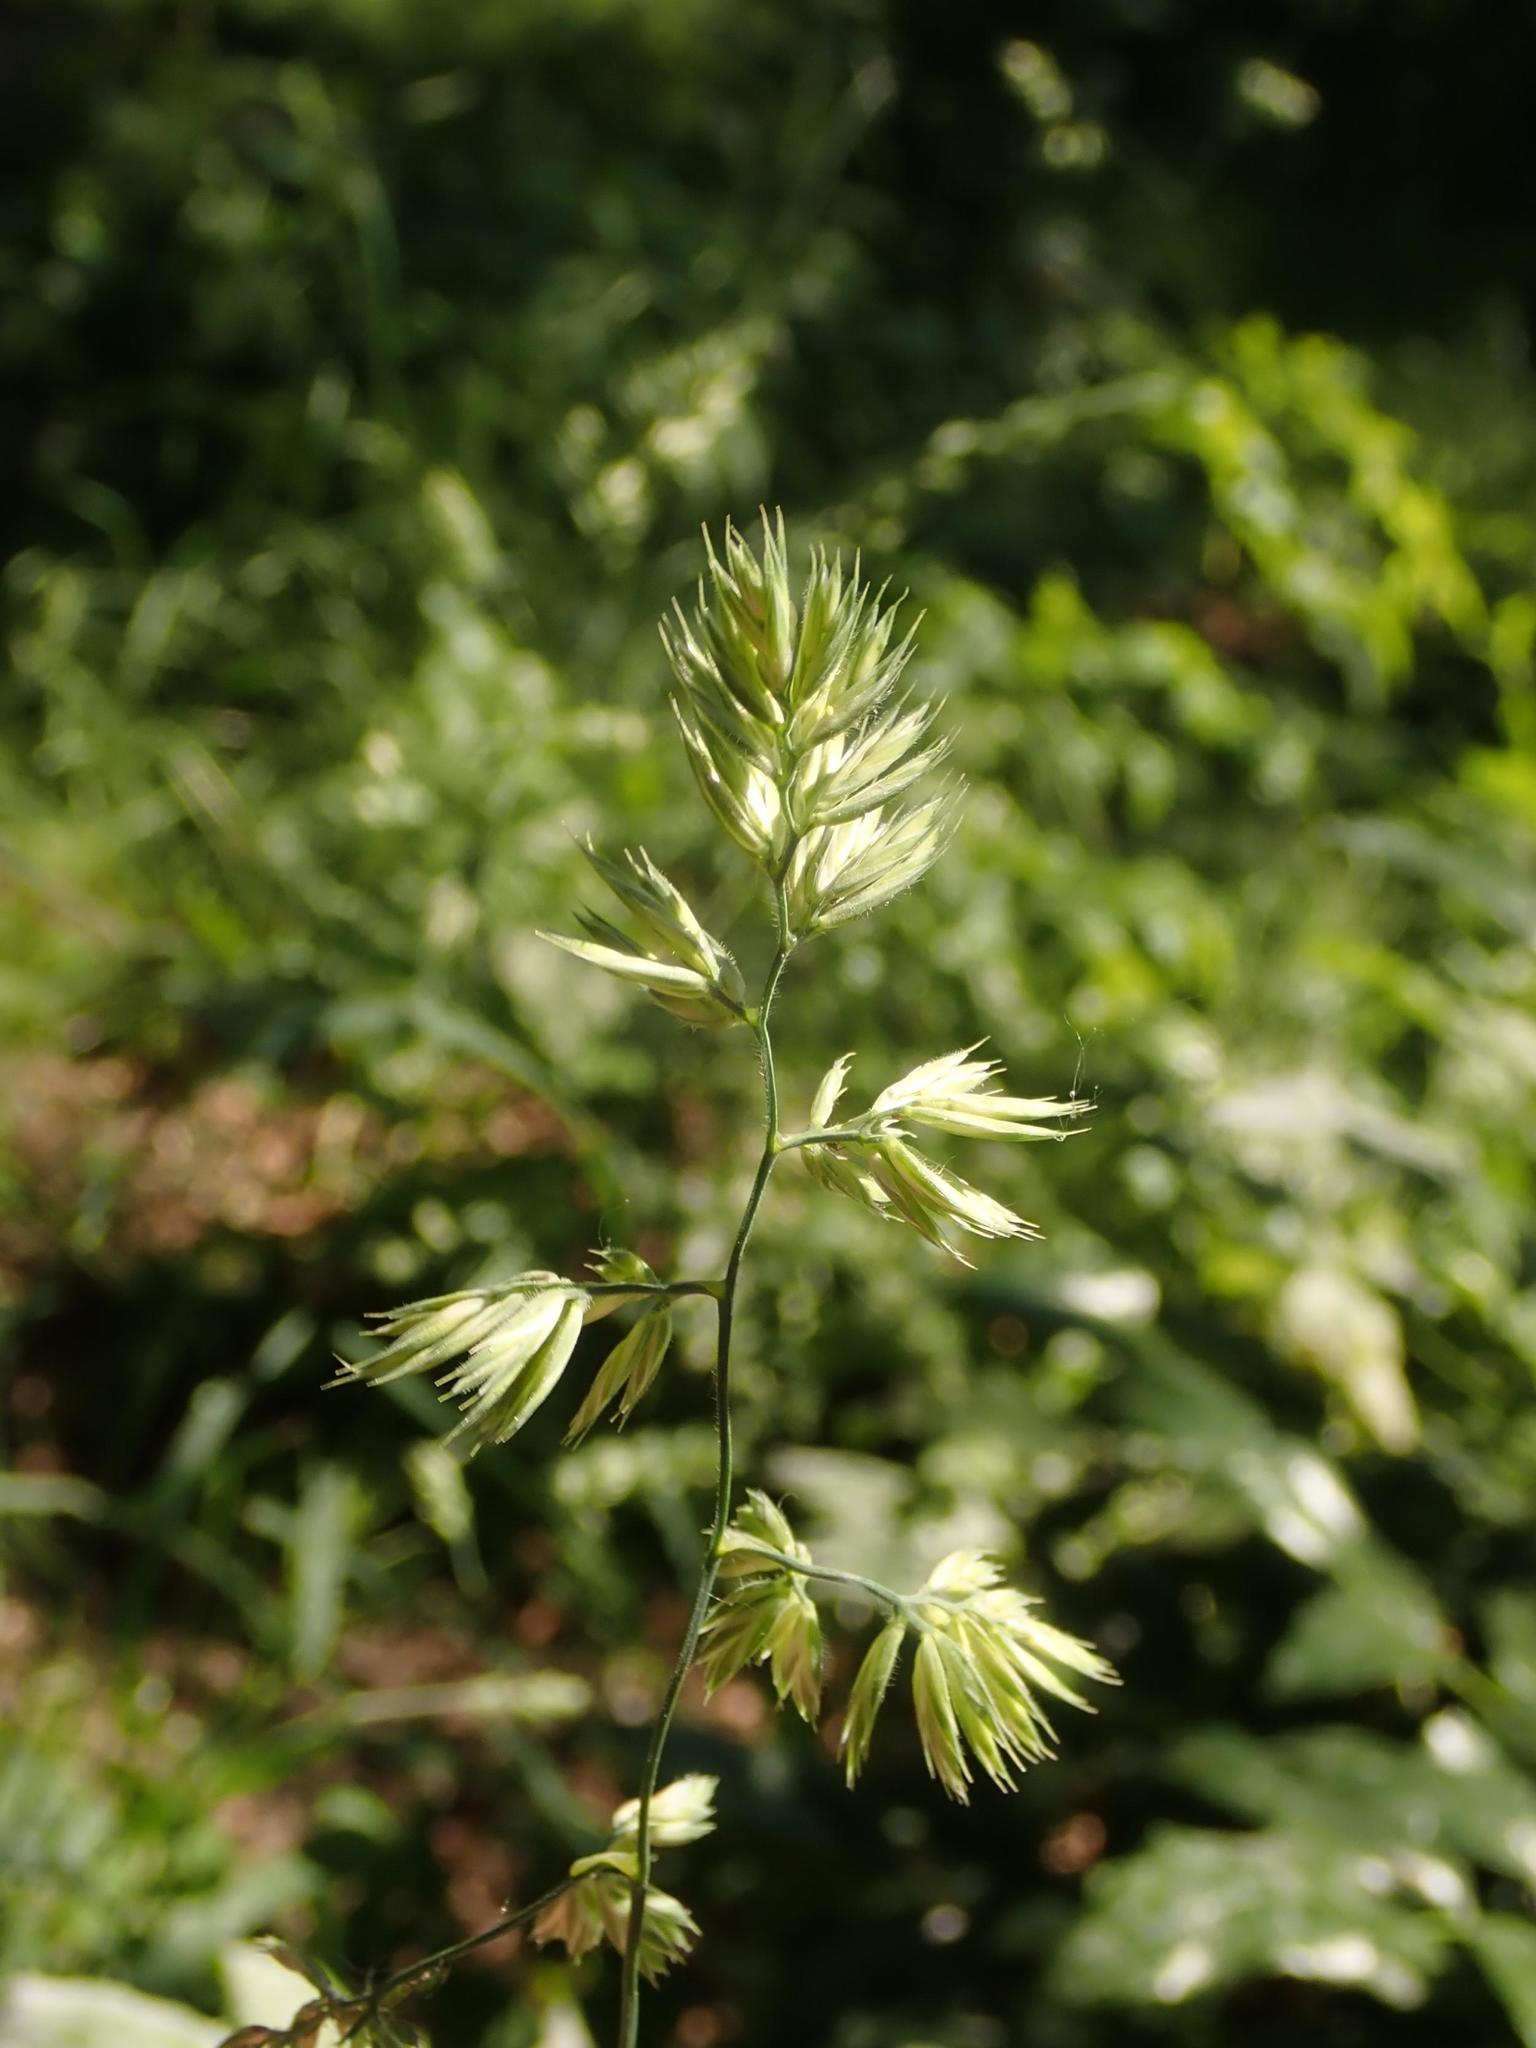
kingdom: Plantae
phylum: Tracheophyta
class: Liliopsida
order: Poales
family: Poaceae
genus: Dactylis
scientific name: Dactylis glomerata
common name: Orchardgrass
